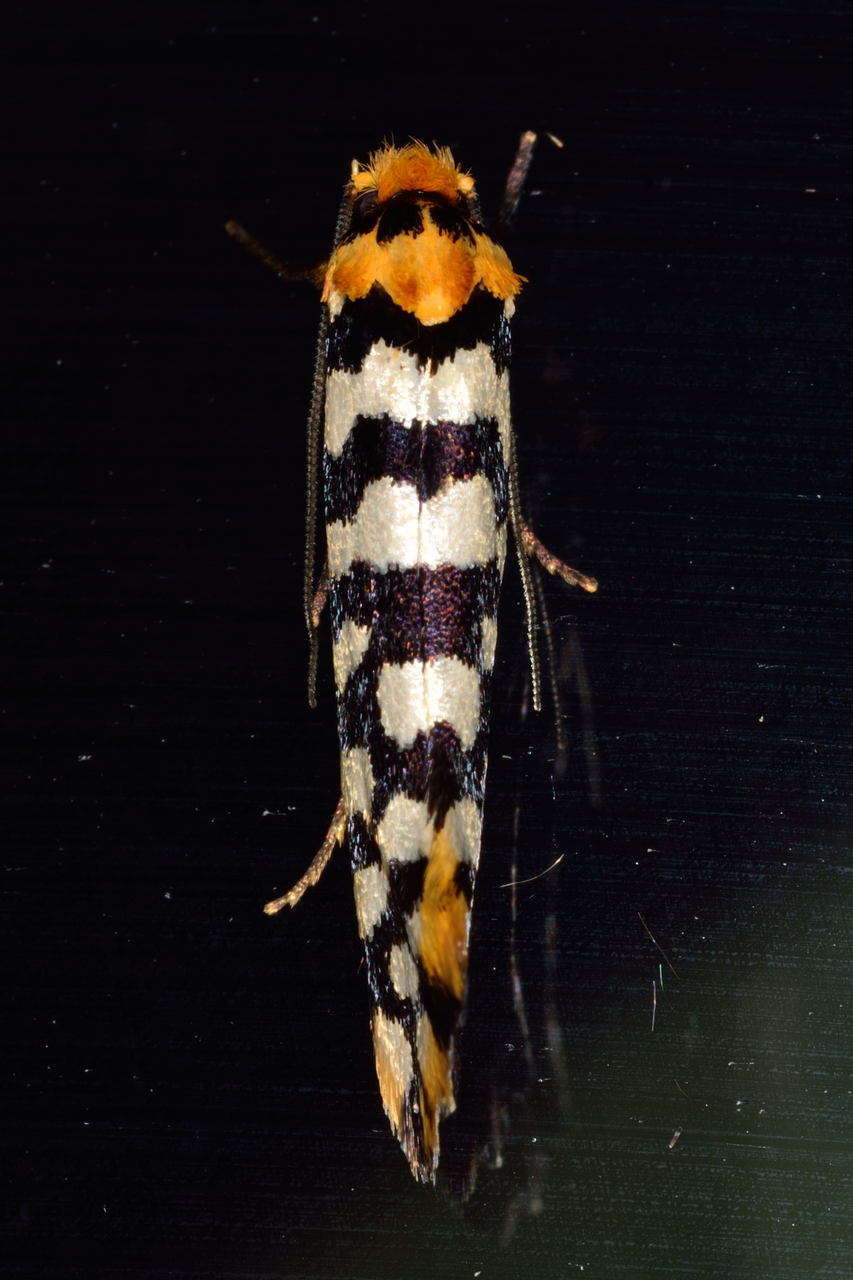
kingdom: Animalia
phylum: Arthropoda
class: Insecta
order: Lepidoptera
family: Tineidae
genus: Moerarchis
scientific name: Moerarchis australasiella
